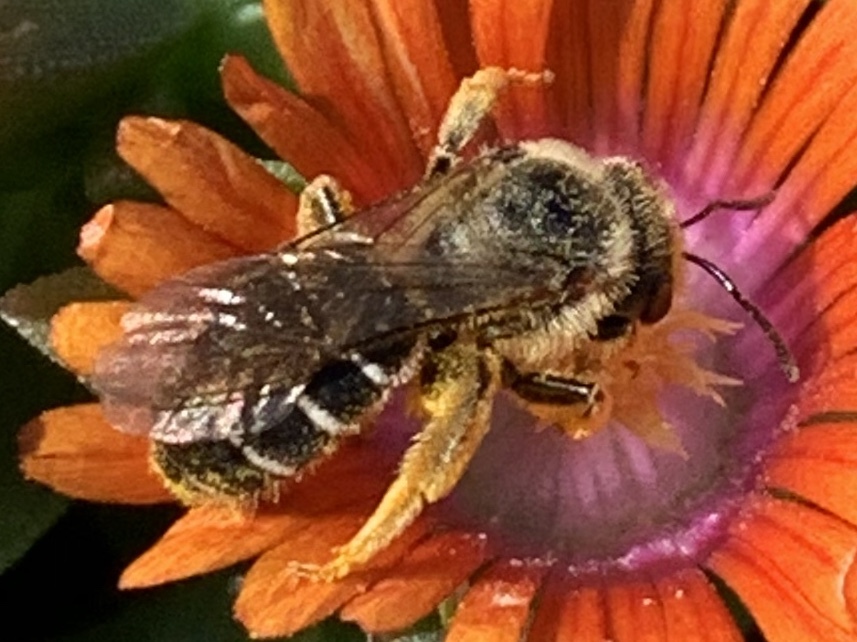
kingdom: Animalia
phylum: Arthropoda
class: Insecta
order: Hymenoptera
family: Halictidae
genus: Halictus
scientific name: Halictus rubicundus
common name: Orange-legged furrow bee
